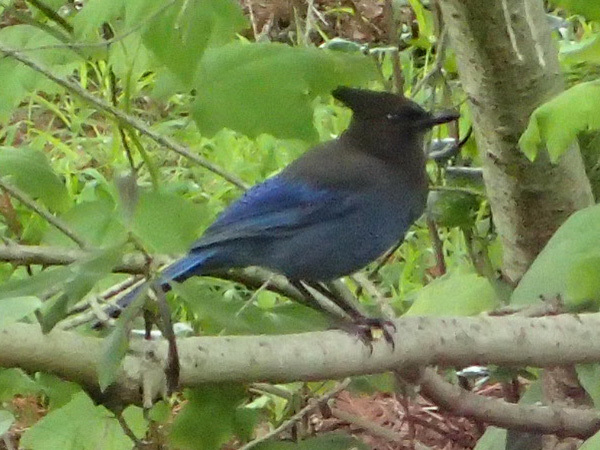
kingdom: Animalia
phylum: Chordata
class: Aves
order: Passeriformes
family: Corvidae
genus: Cyanocitta
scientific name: Cyanocitta stelleri
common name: Steller's jay
